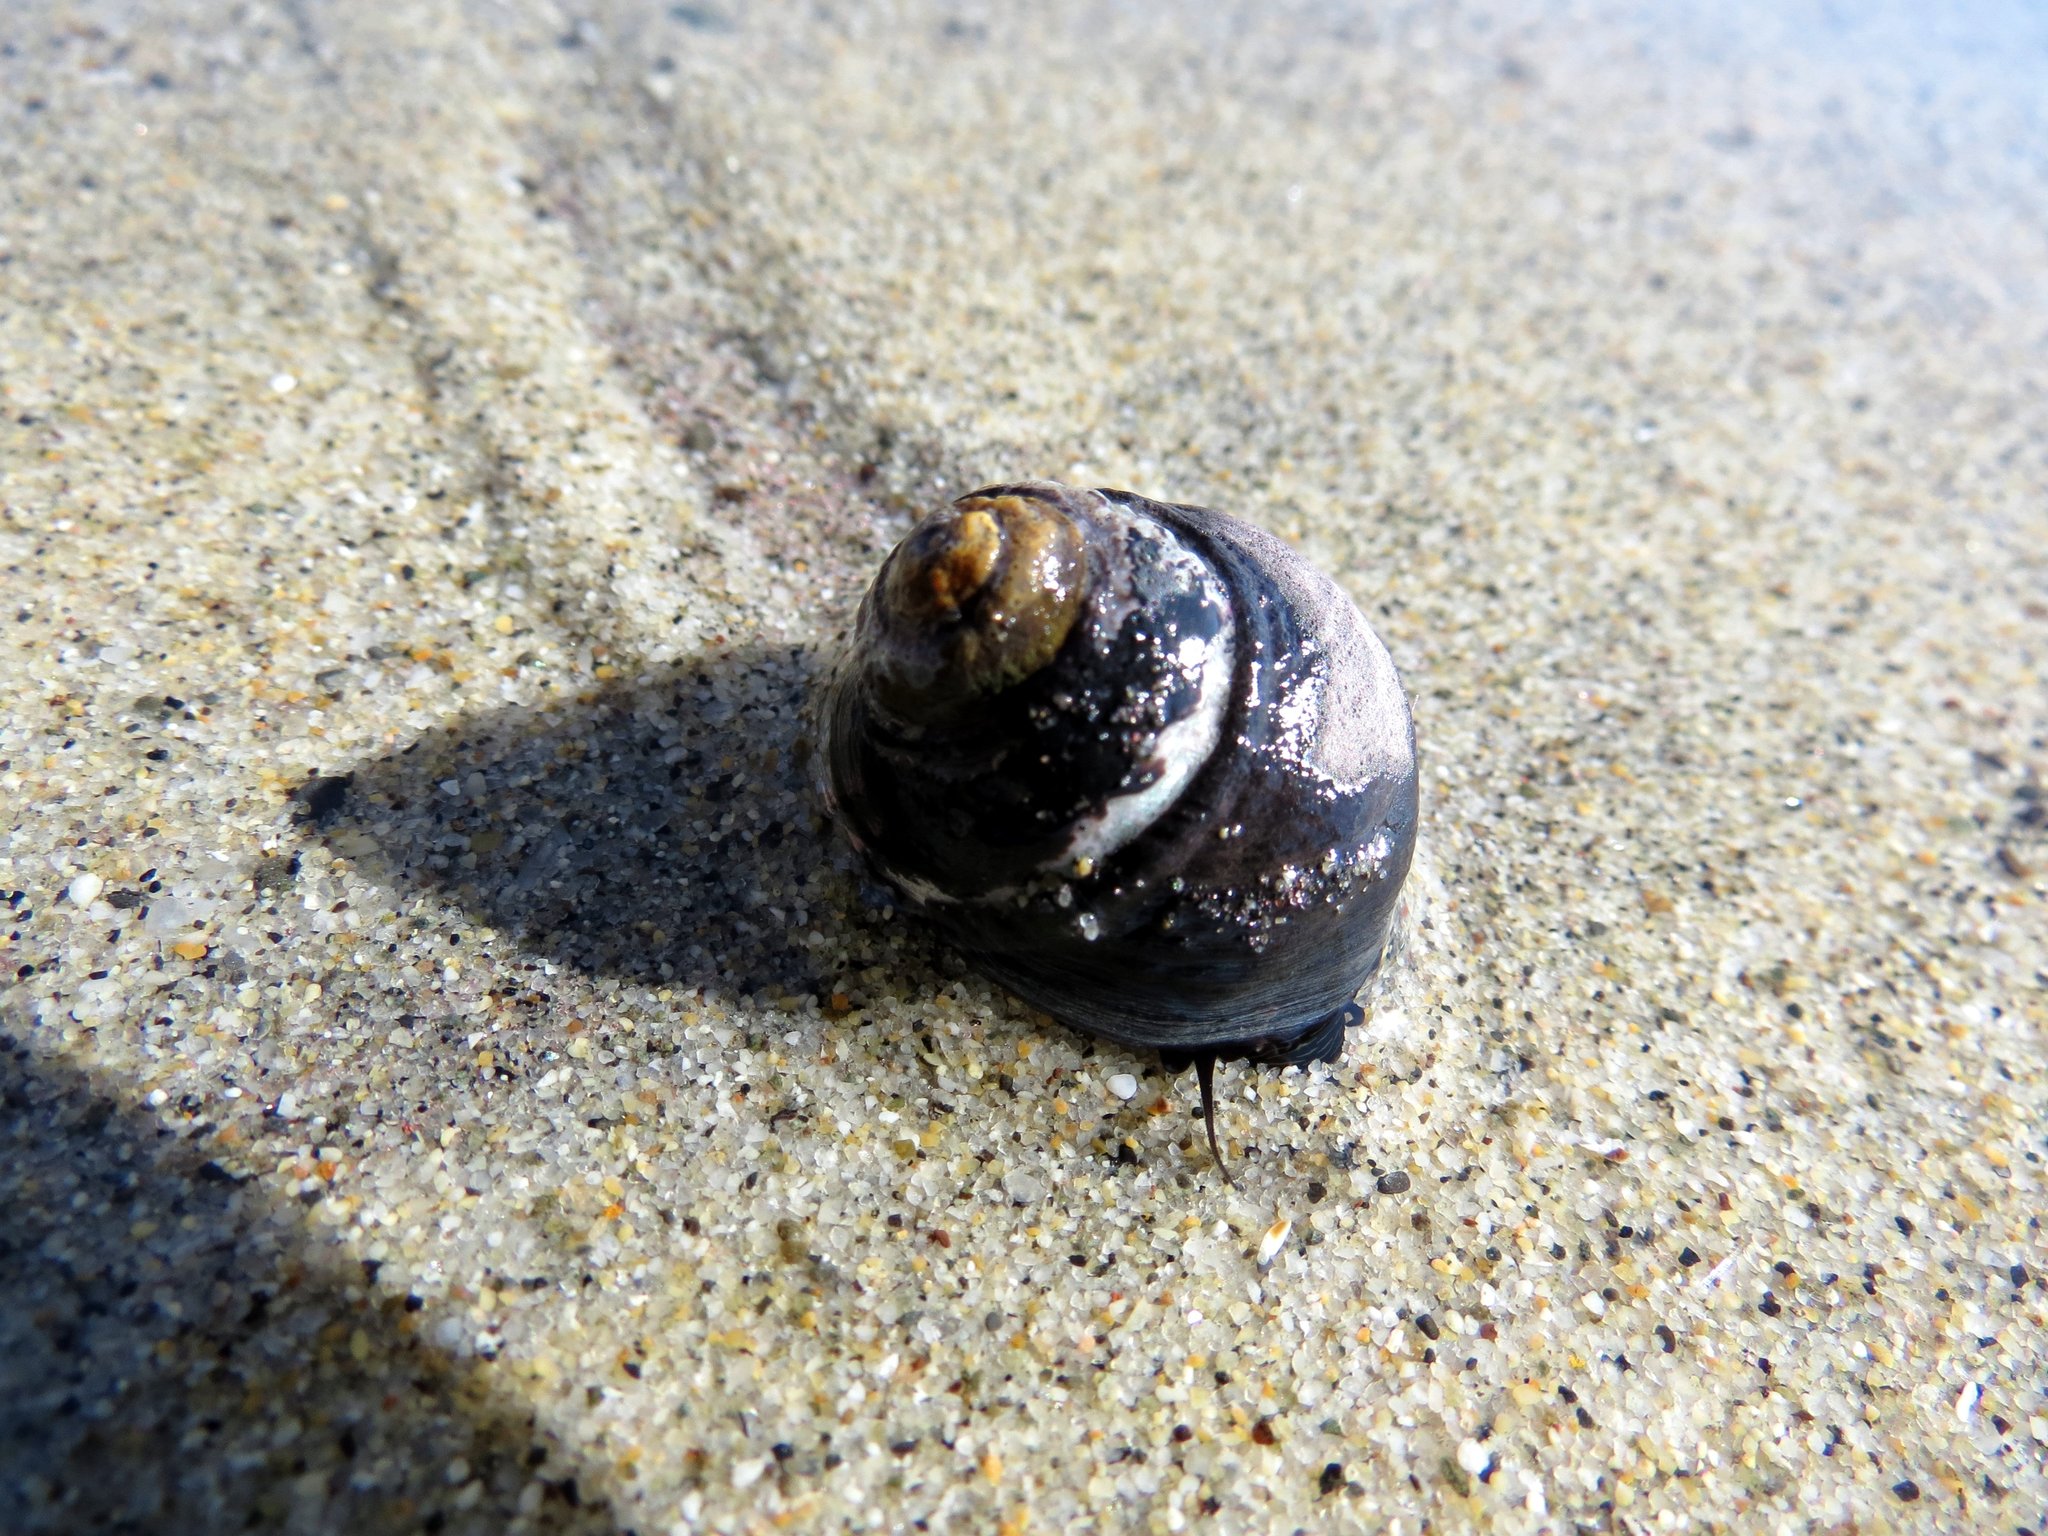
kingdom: Animalia
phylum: Mollusca
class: Gastropoda
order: Trochida
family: Tegulidae
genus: Tegula
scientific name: Tegula funebralis
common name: Black tegula
